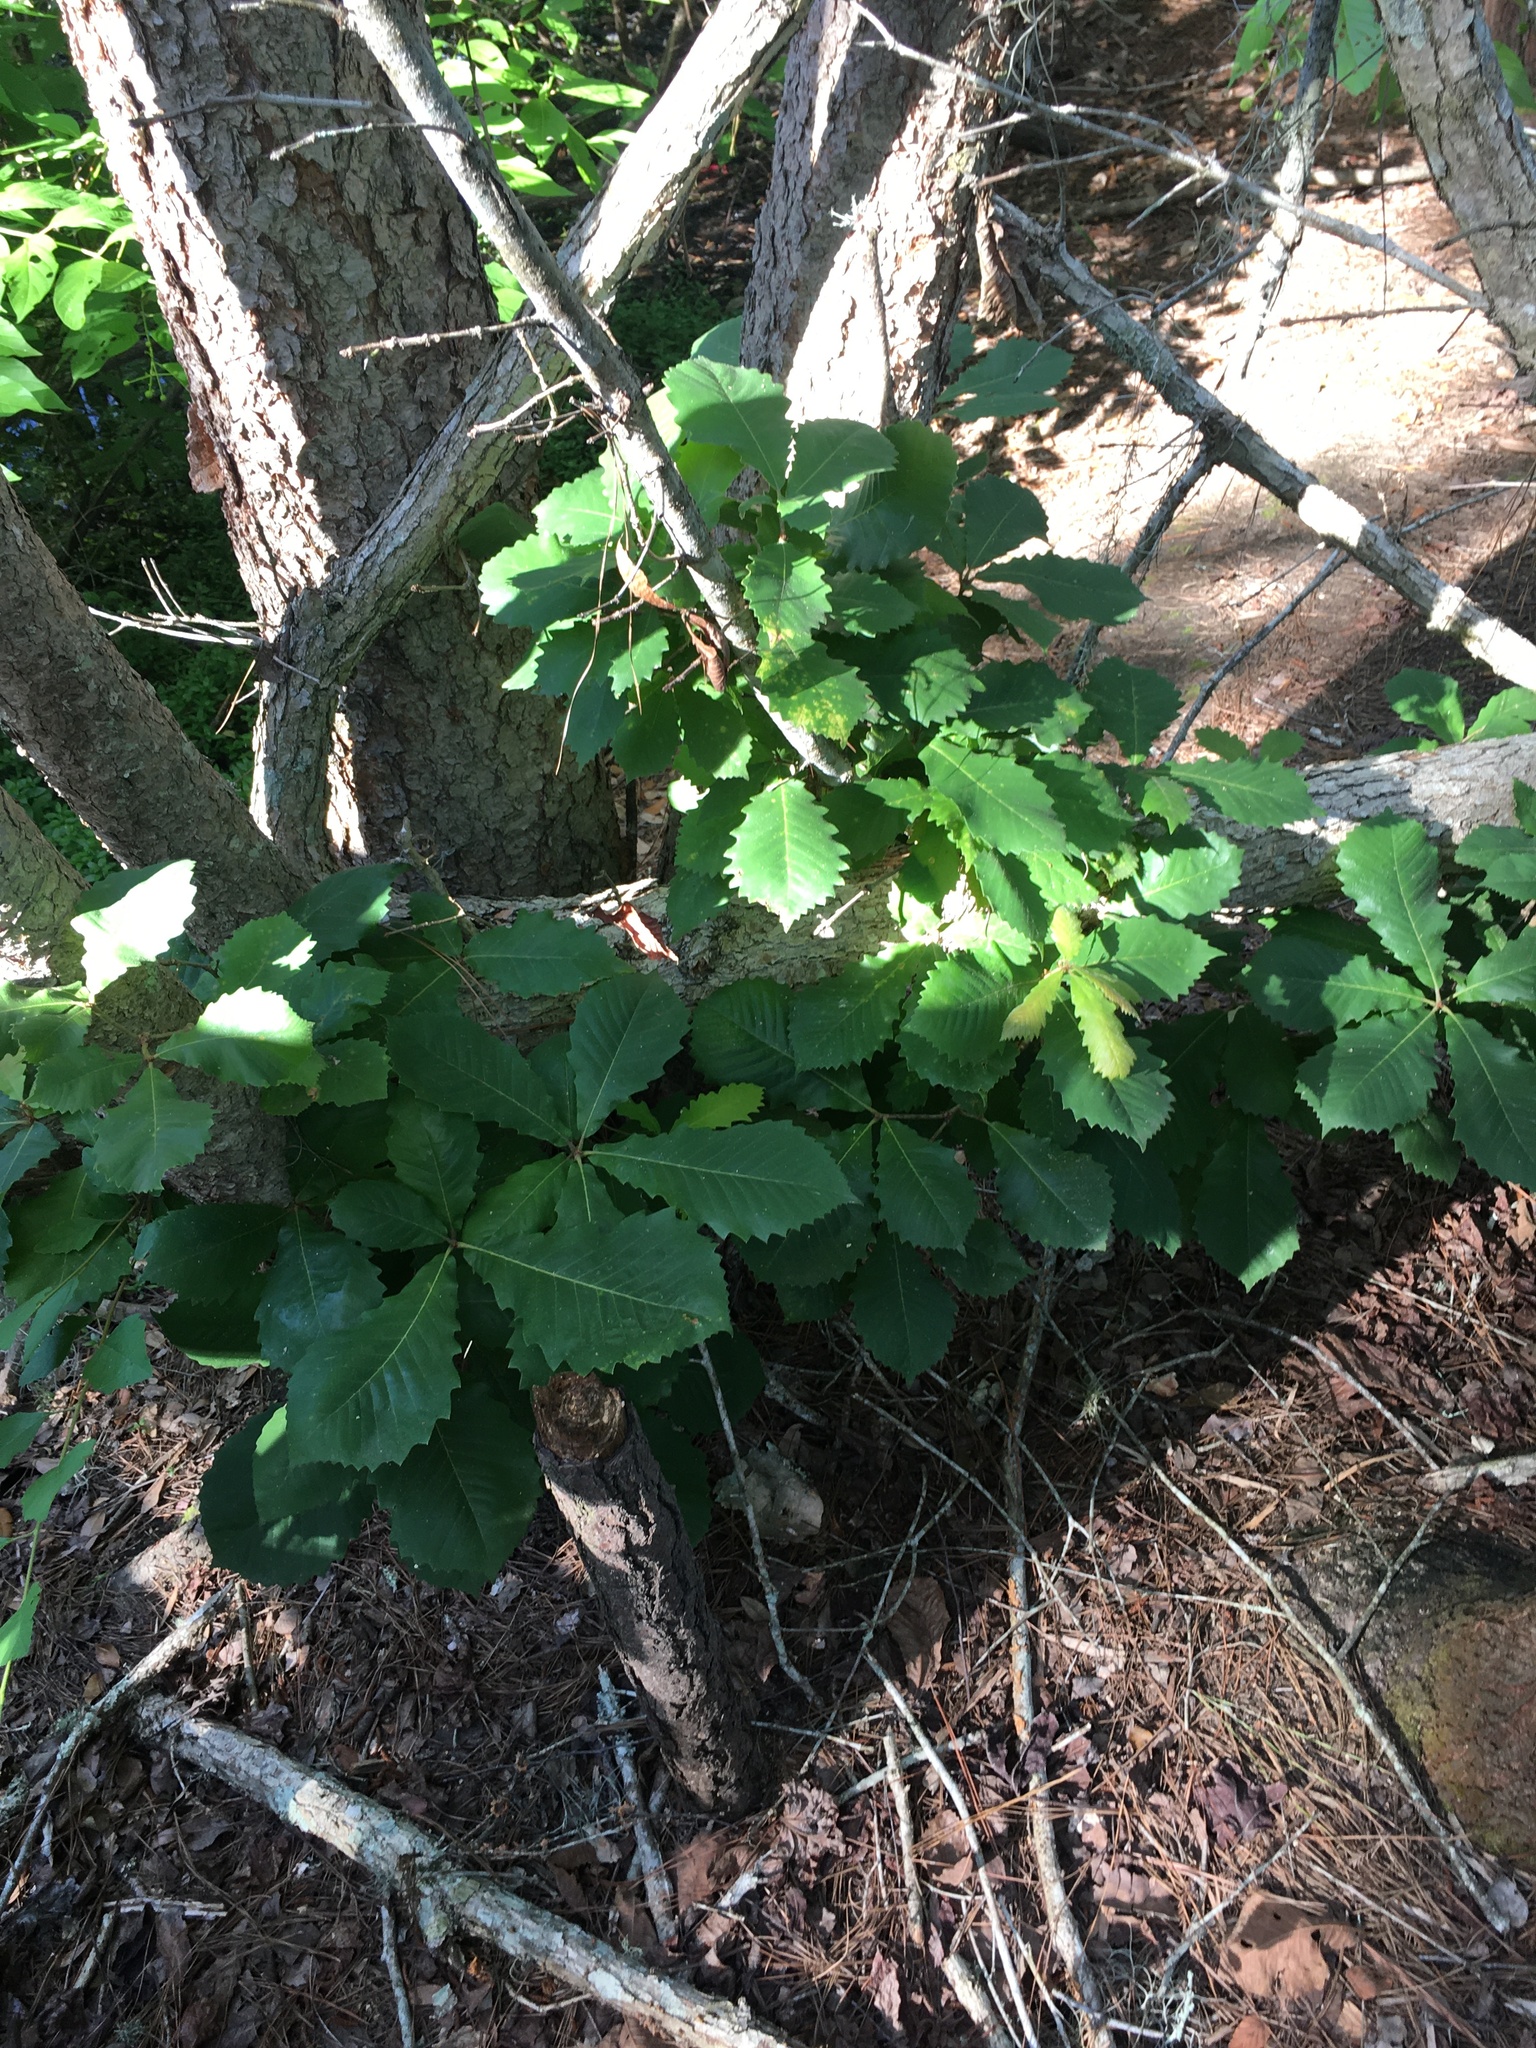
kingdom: Plantae
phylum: Tracheophyta
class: Magnoliopsida
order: Fagales
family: Fagaceae
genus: Quercus
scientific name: Quercus michauxii
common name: Swamp chestnut oak
